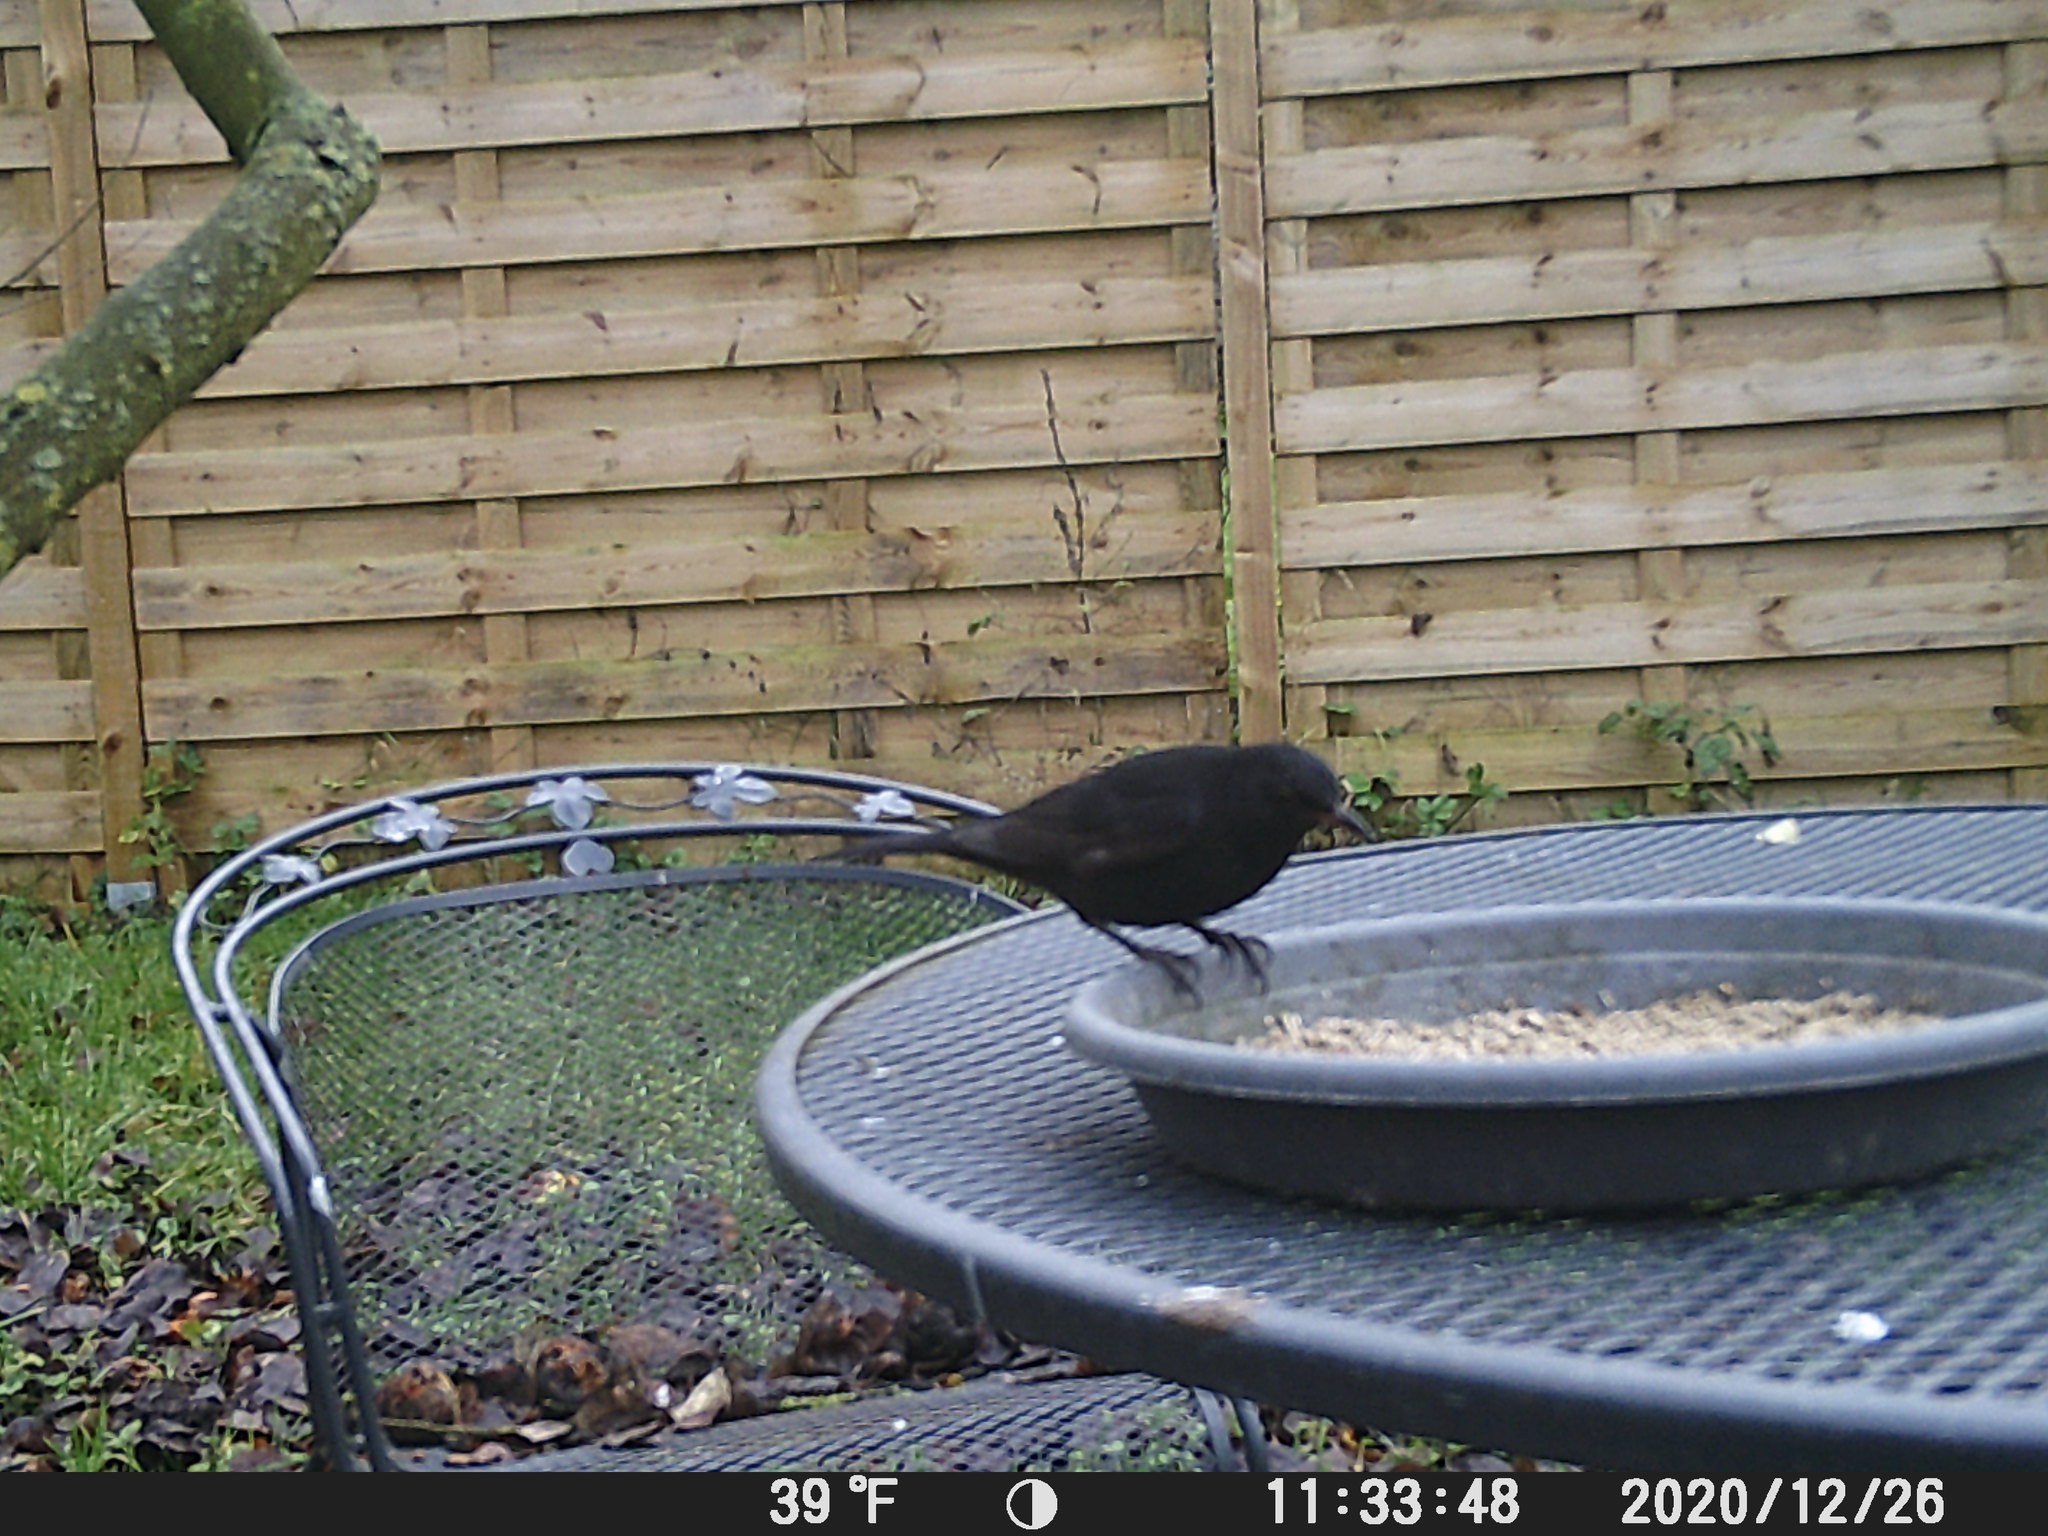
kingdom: Animalia
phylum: Chordata
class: Aves
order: Passeriformes
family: Turdidae
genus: Turdus
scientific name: Turdus merula
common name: Common blackbird
